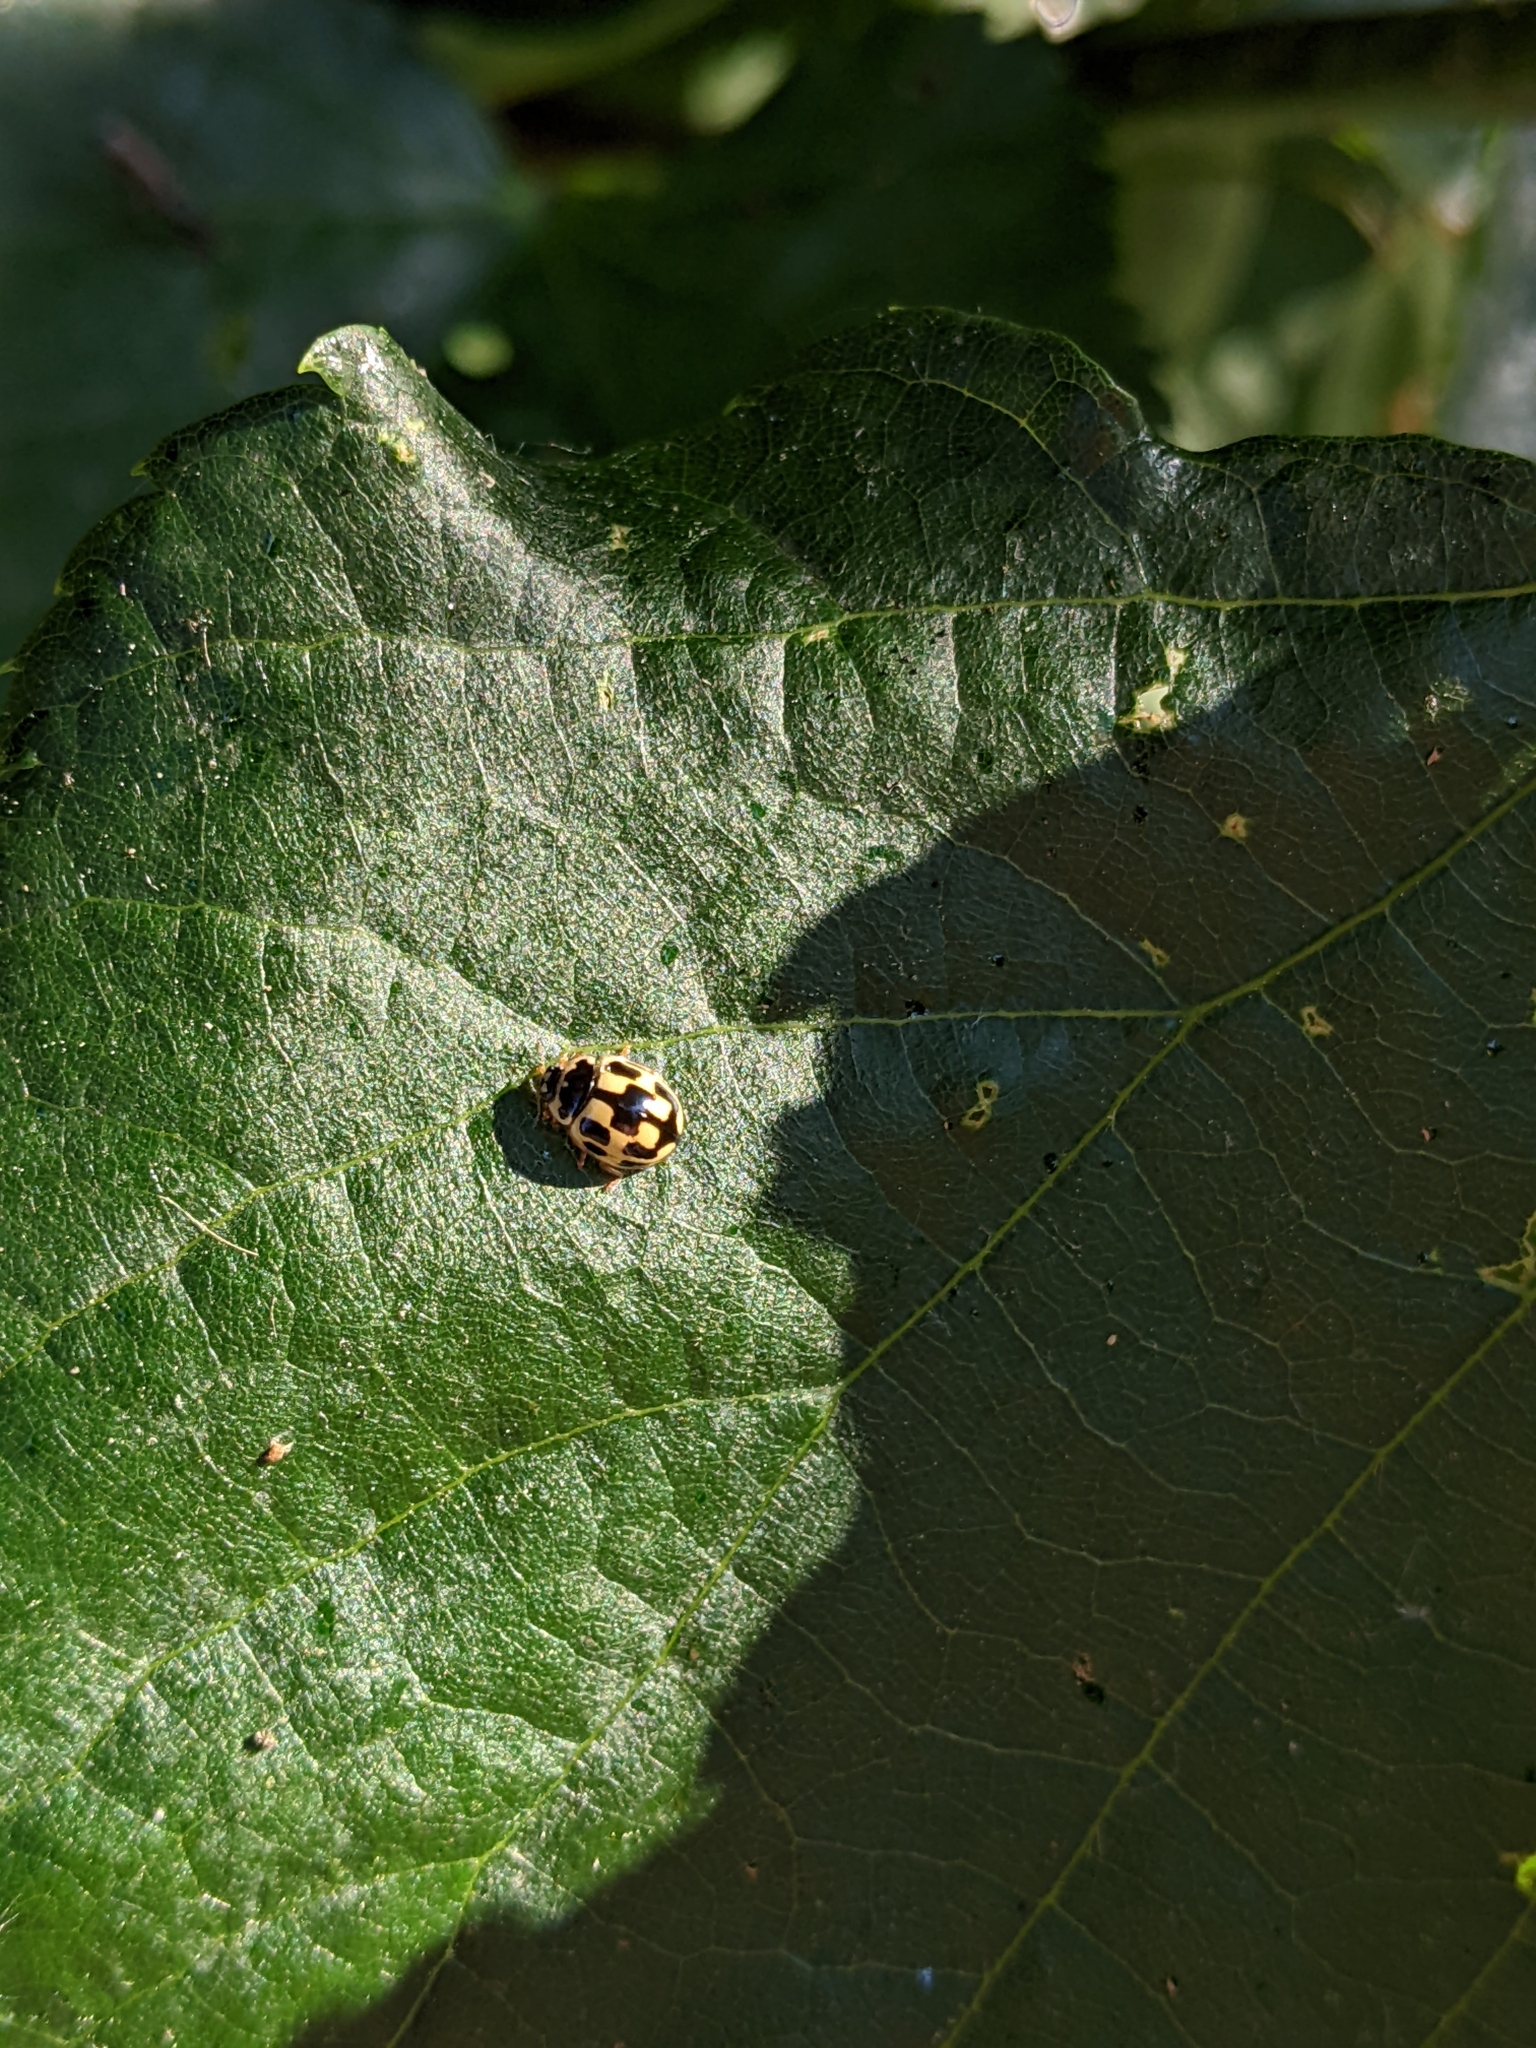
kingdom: Animalia
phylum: Arthropoda
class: Insecta
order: Coleoptera
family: Coccinellidae
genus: Propylaea
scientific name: Propylaea quatuordecimpunctata
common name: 14-spotted ladybird beetle
